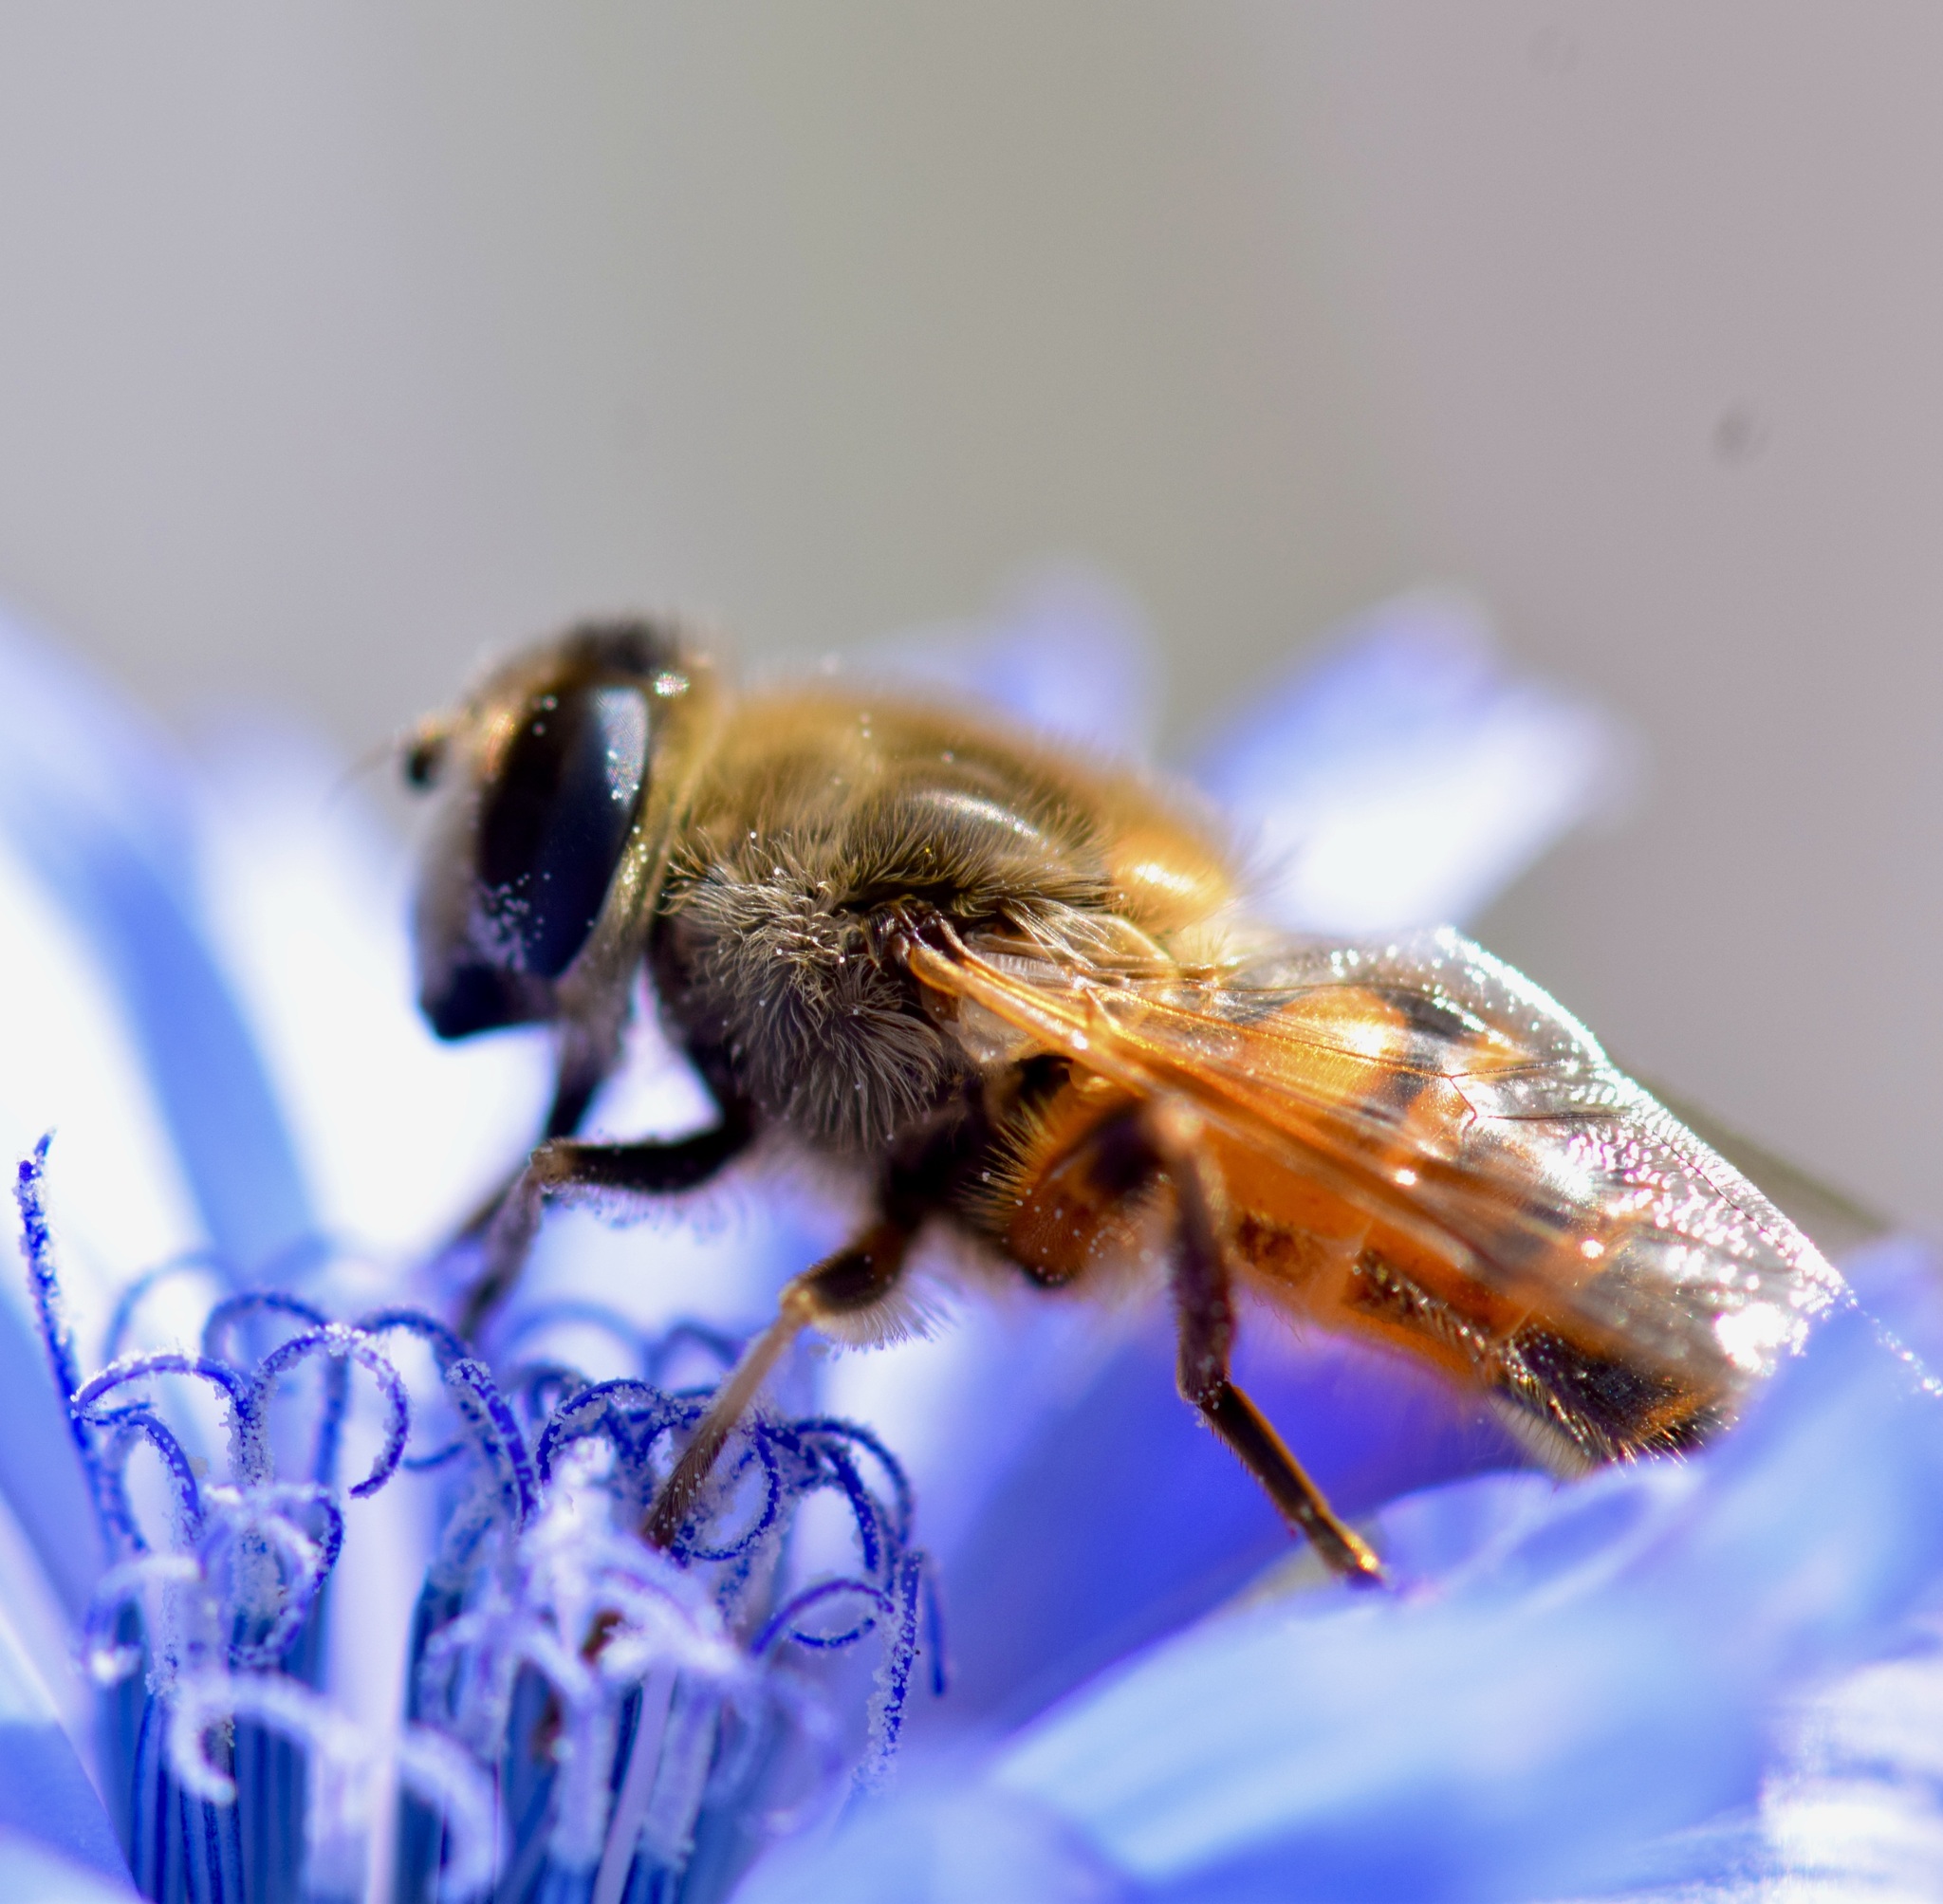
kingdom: Animalia
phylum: Arthropoda
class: Insecta
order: Diptera
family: Syrphidae
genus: Eristalis
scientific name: Eristalis tenax
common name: Drone fly
